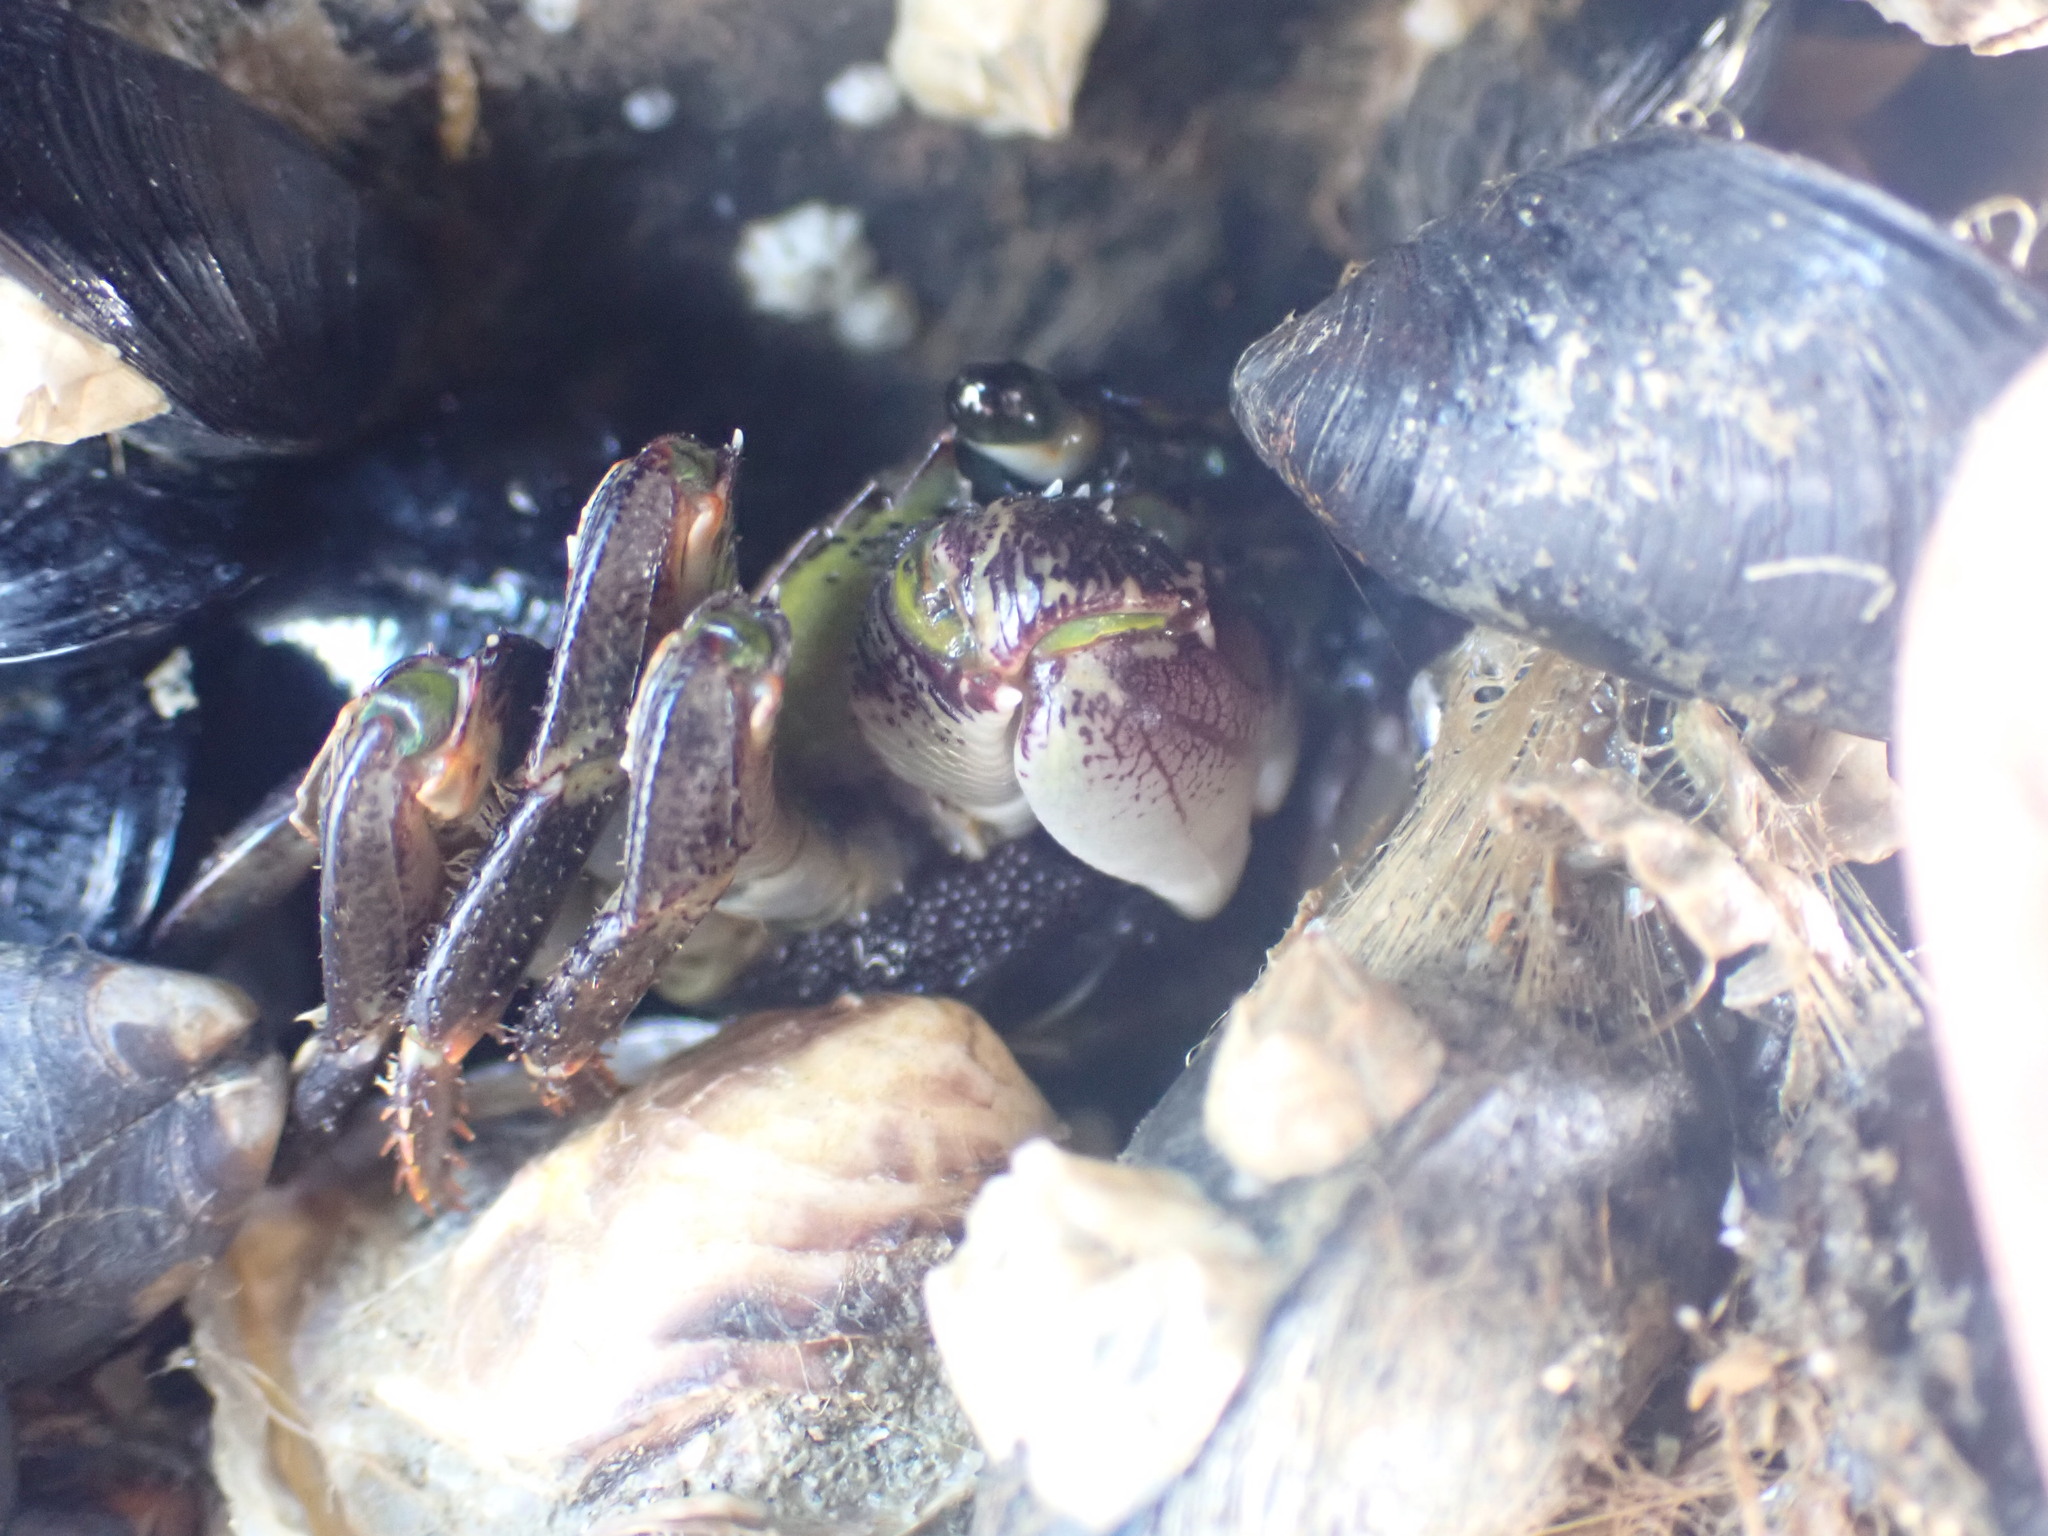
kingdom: Animalia
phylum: Arthropoda
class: Malacostraca
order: Decapoda
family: Grapsidae
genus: Leptograpsus
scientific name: Leptograpsus variegatus
